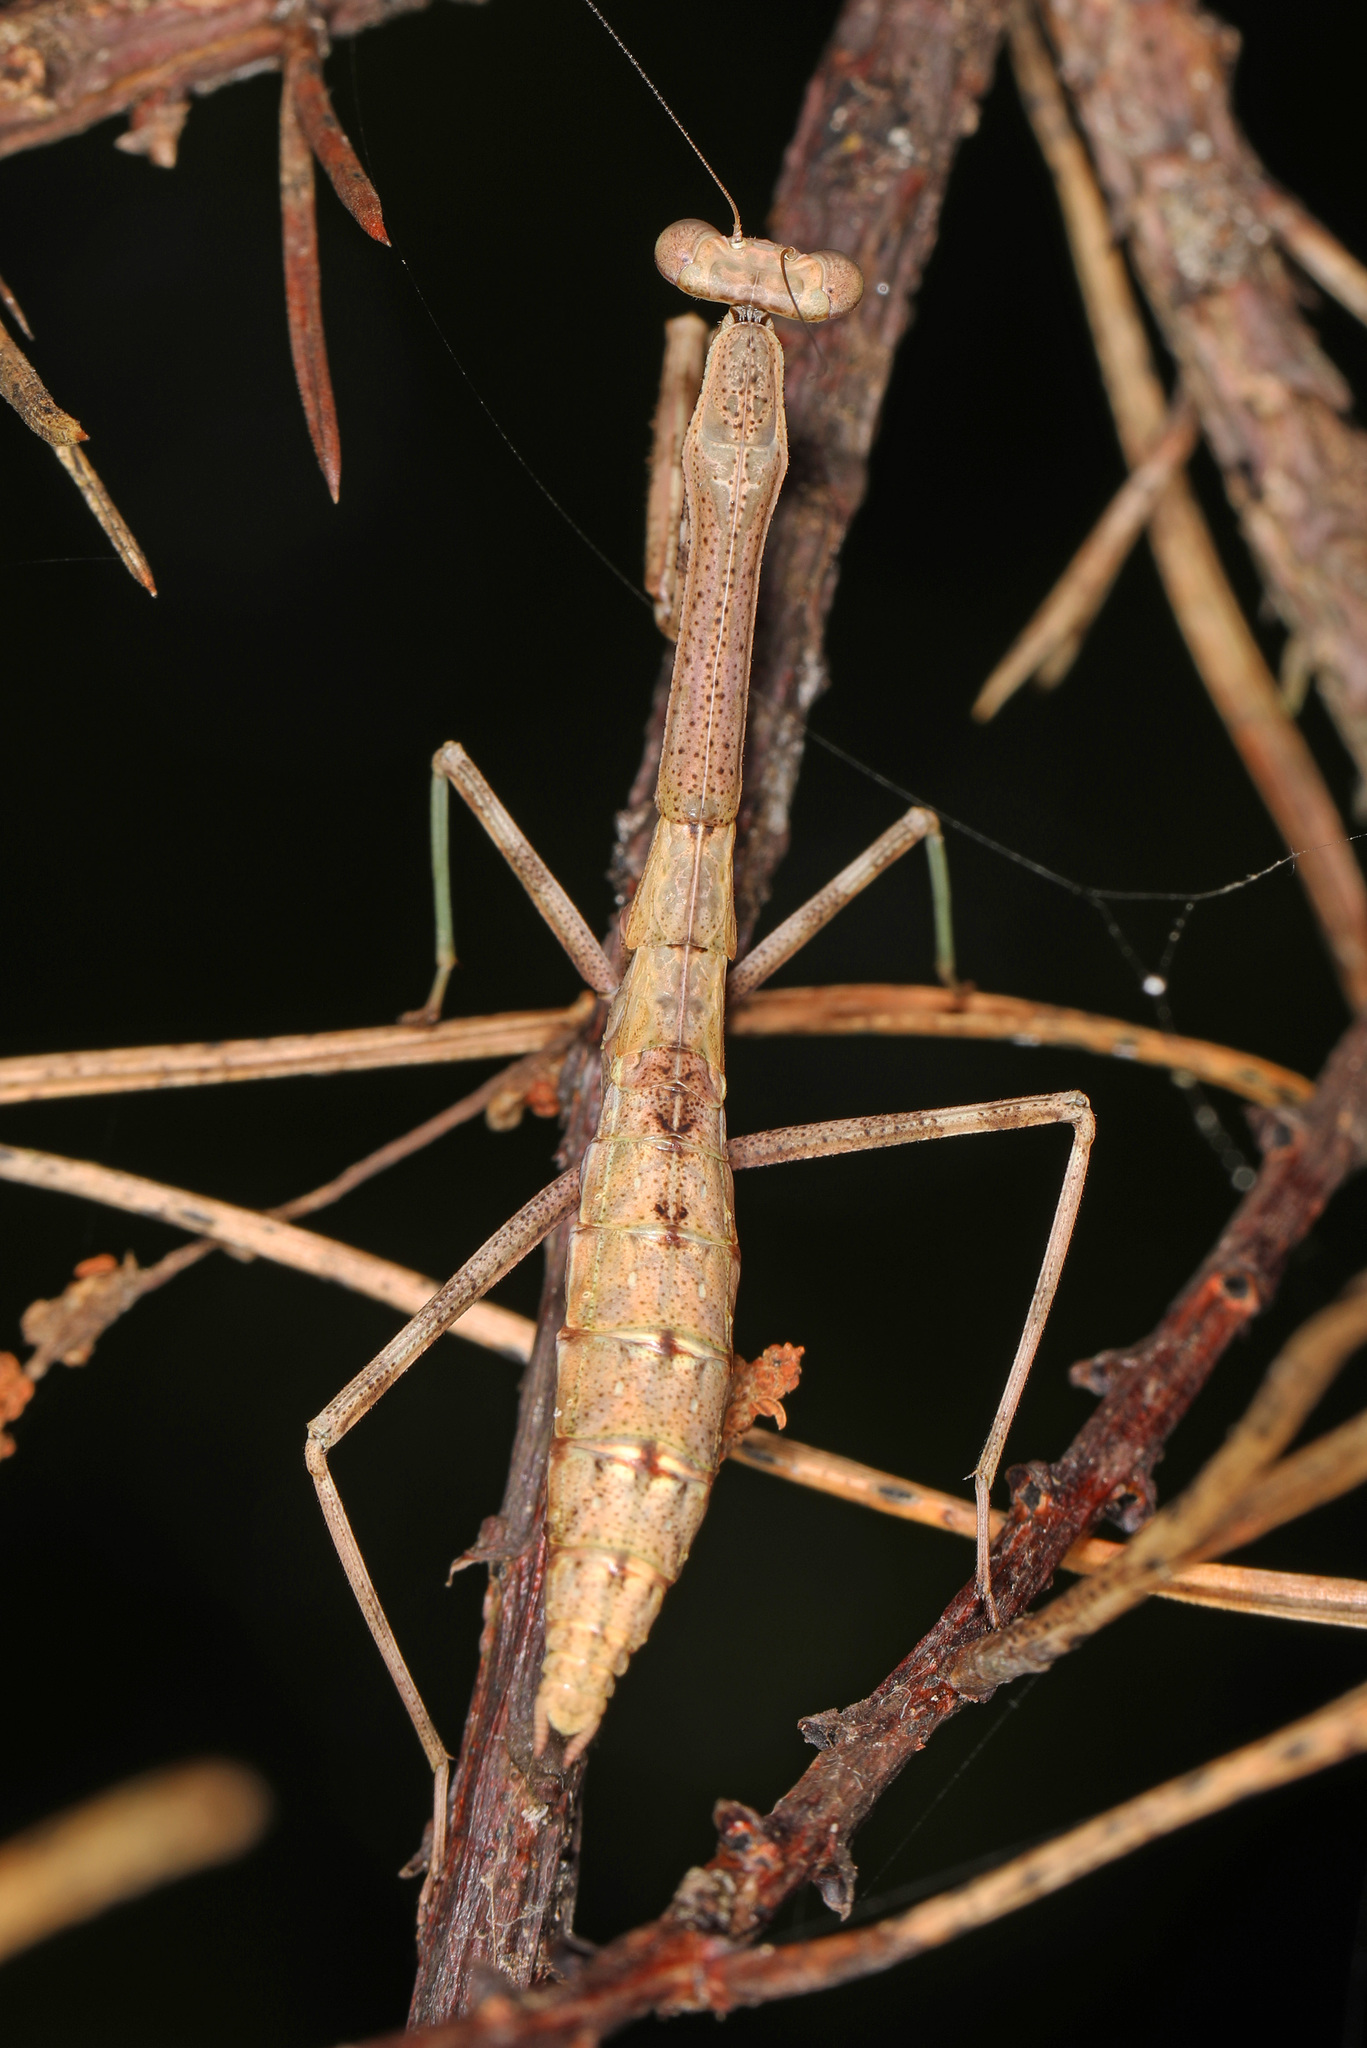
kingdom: Animalia
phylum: Arthropoda
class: Insecta
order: Mantodea
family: Mantidae
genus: Stagmomantis
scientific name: Stagmomantis carolina
